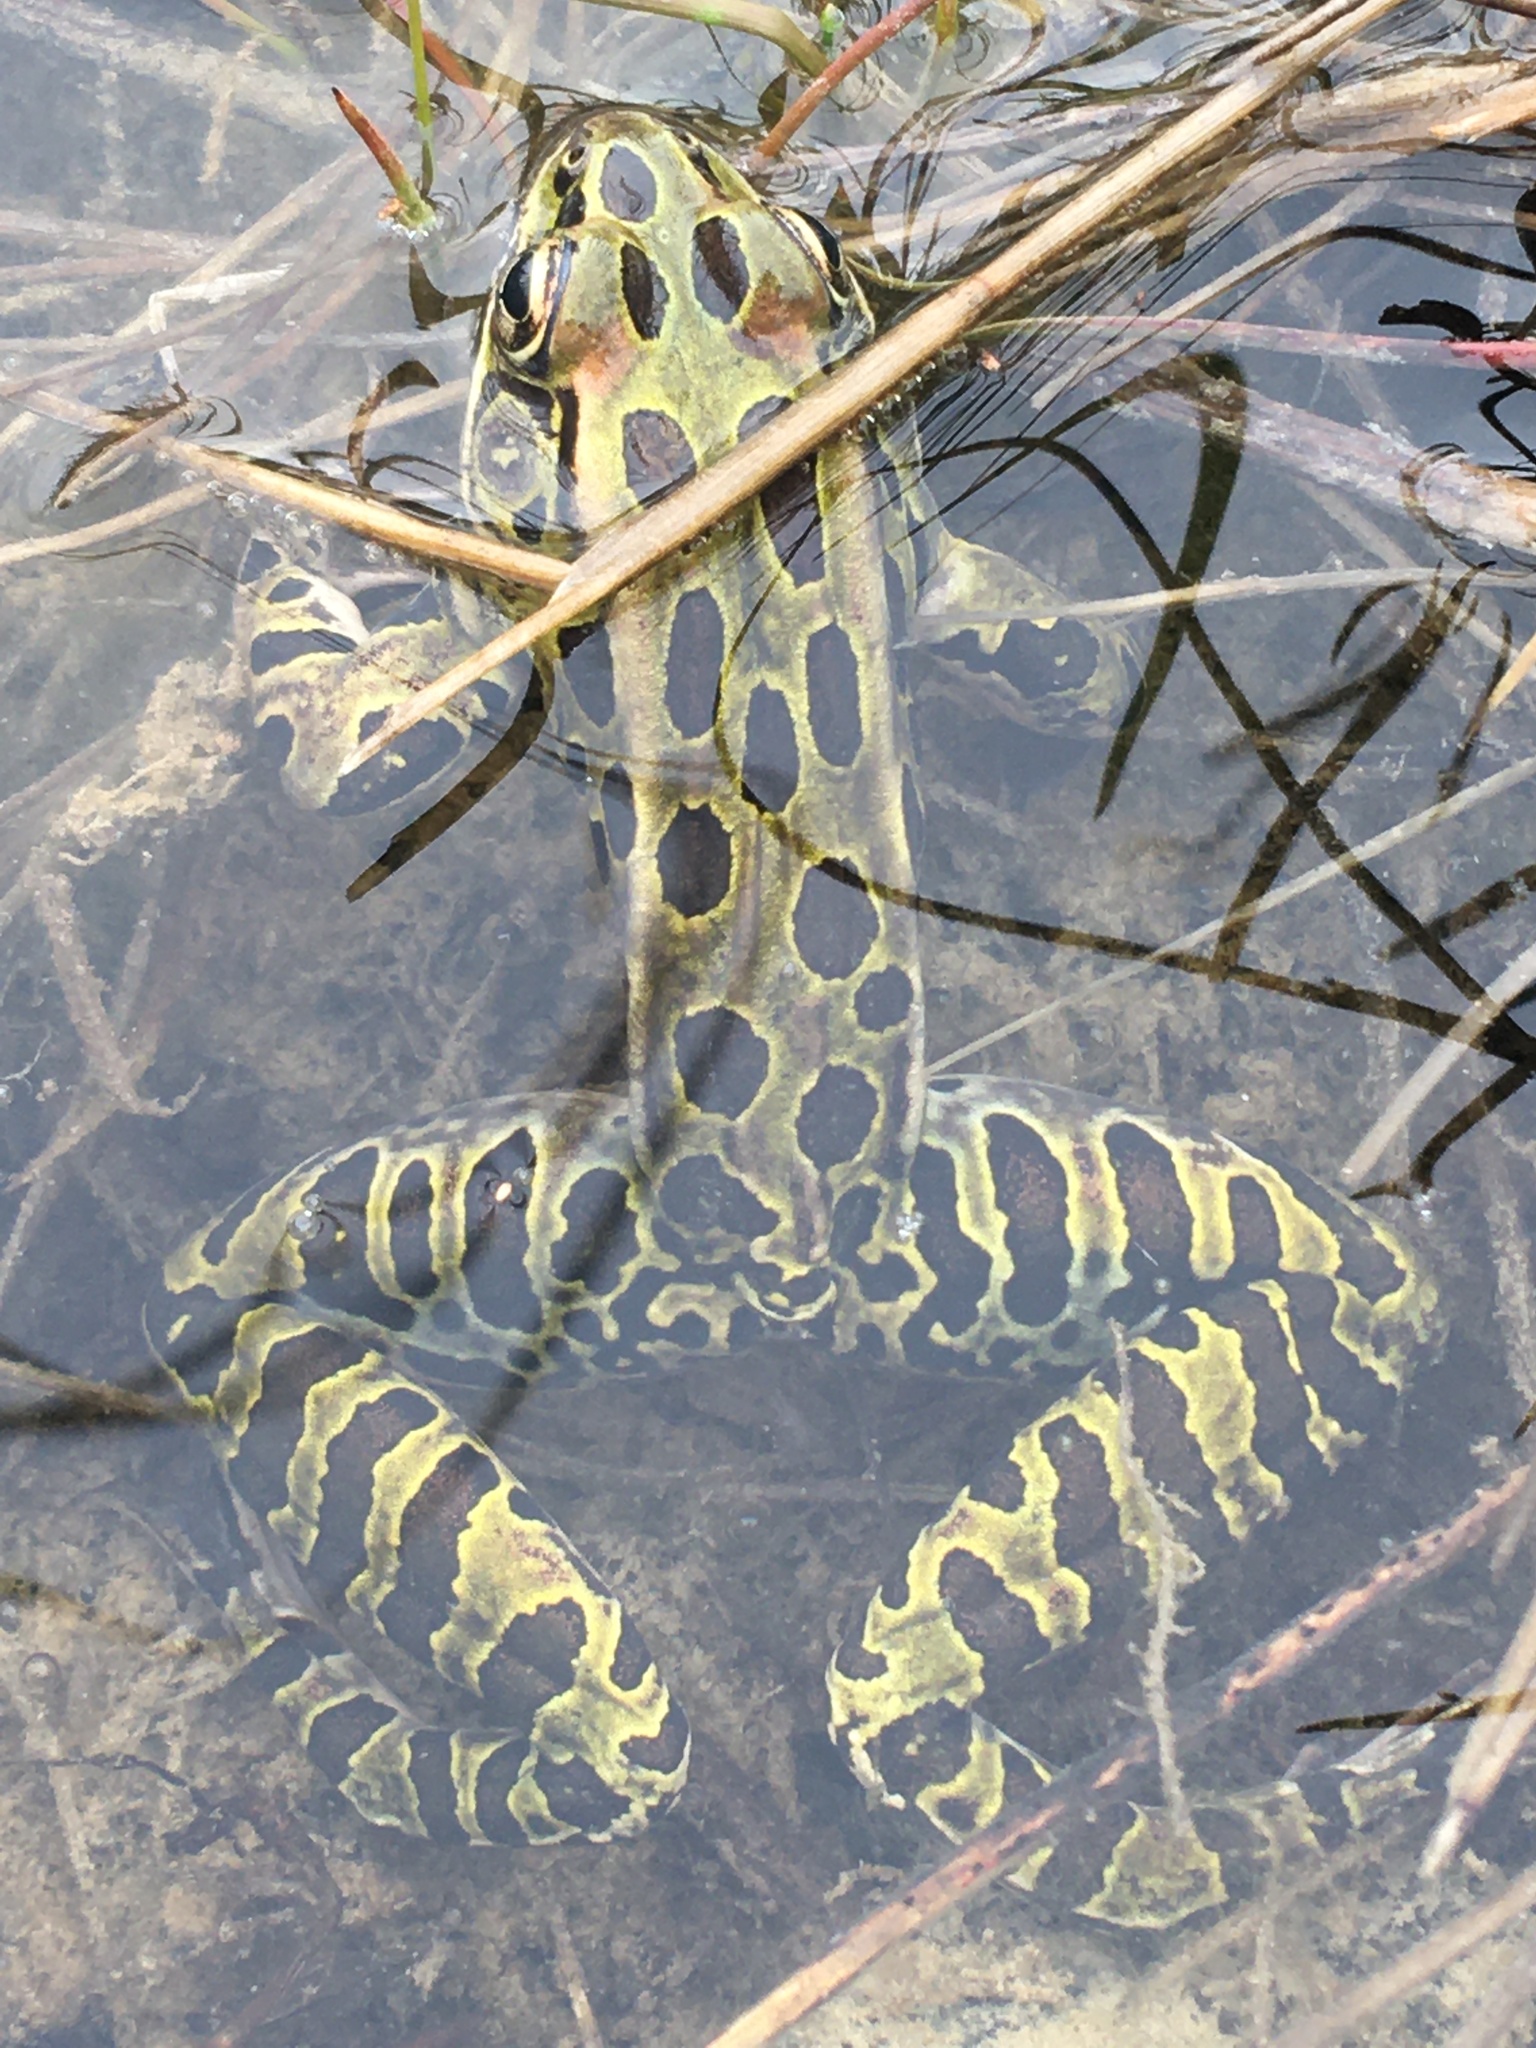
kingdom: Animalia
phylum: Chordata
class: Amphibia
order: Anura
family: Ranidae
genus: Lithobates
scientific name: Lithobates pipiens
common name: Northern leopard frog
